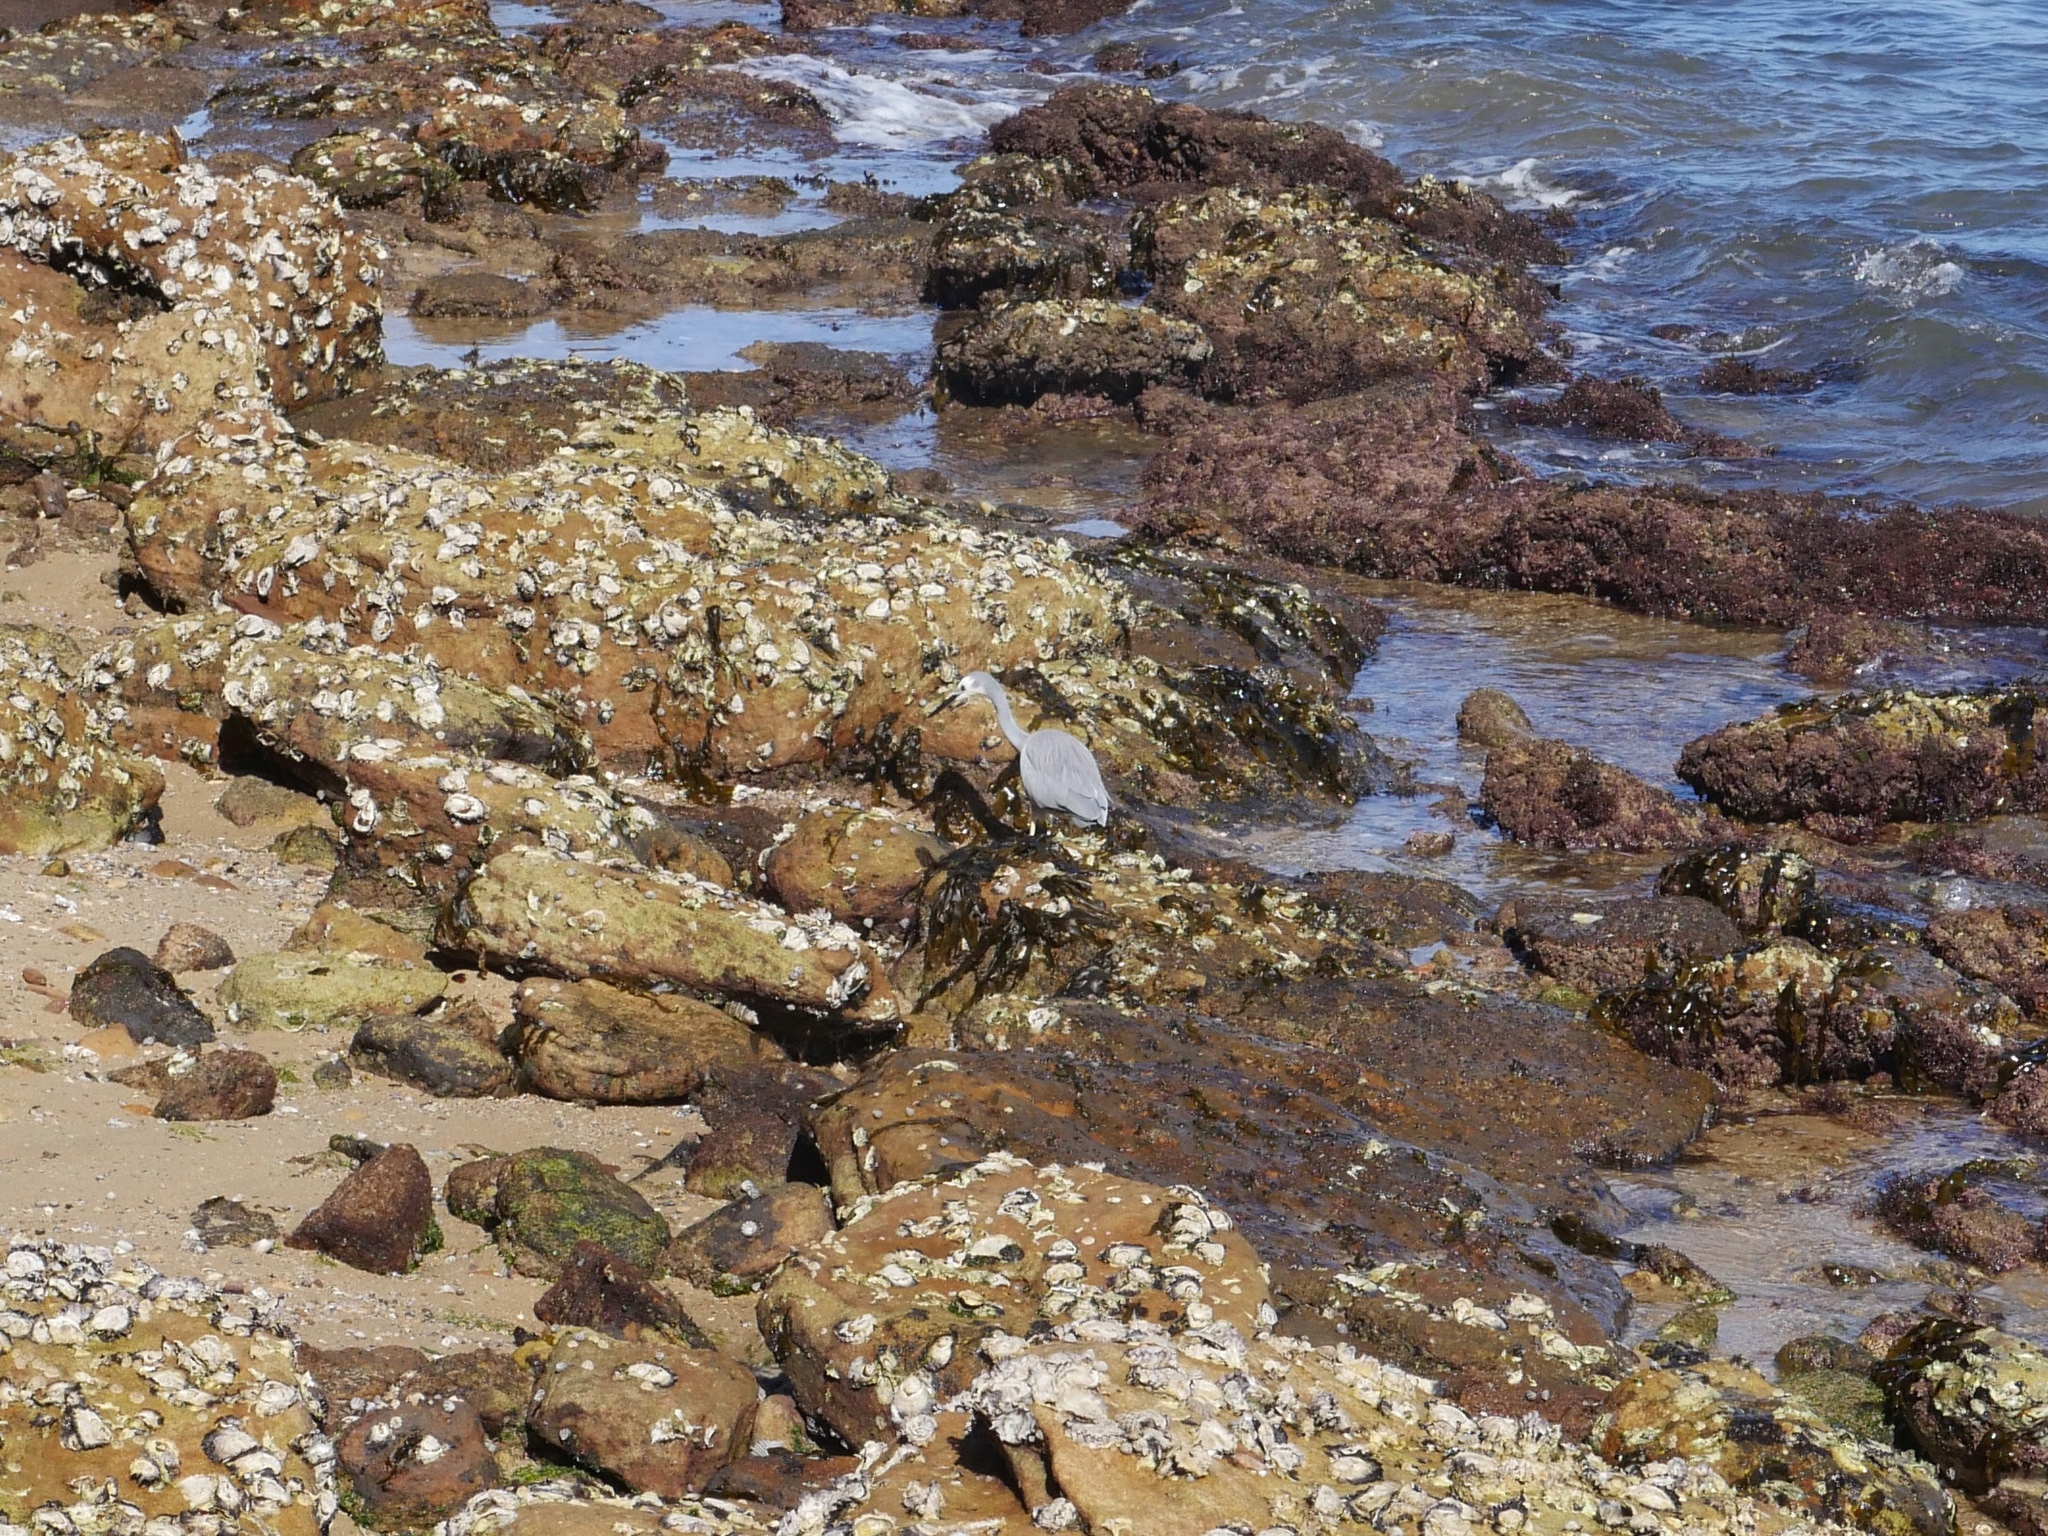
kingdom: Animalia
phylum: Chordata
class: Aves
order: Pelecaniformes
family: Ardeidae
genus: Egretta
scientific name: Egretta novaehollandiae
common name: White-faced heron
